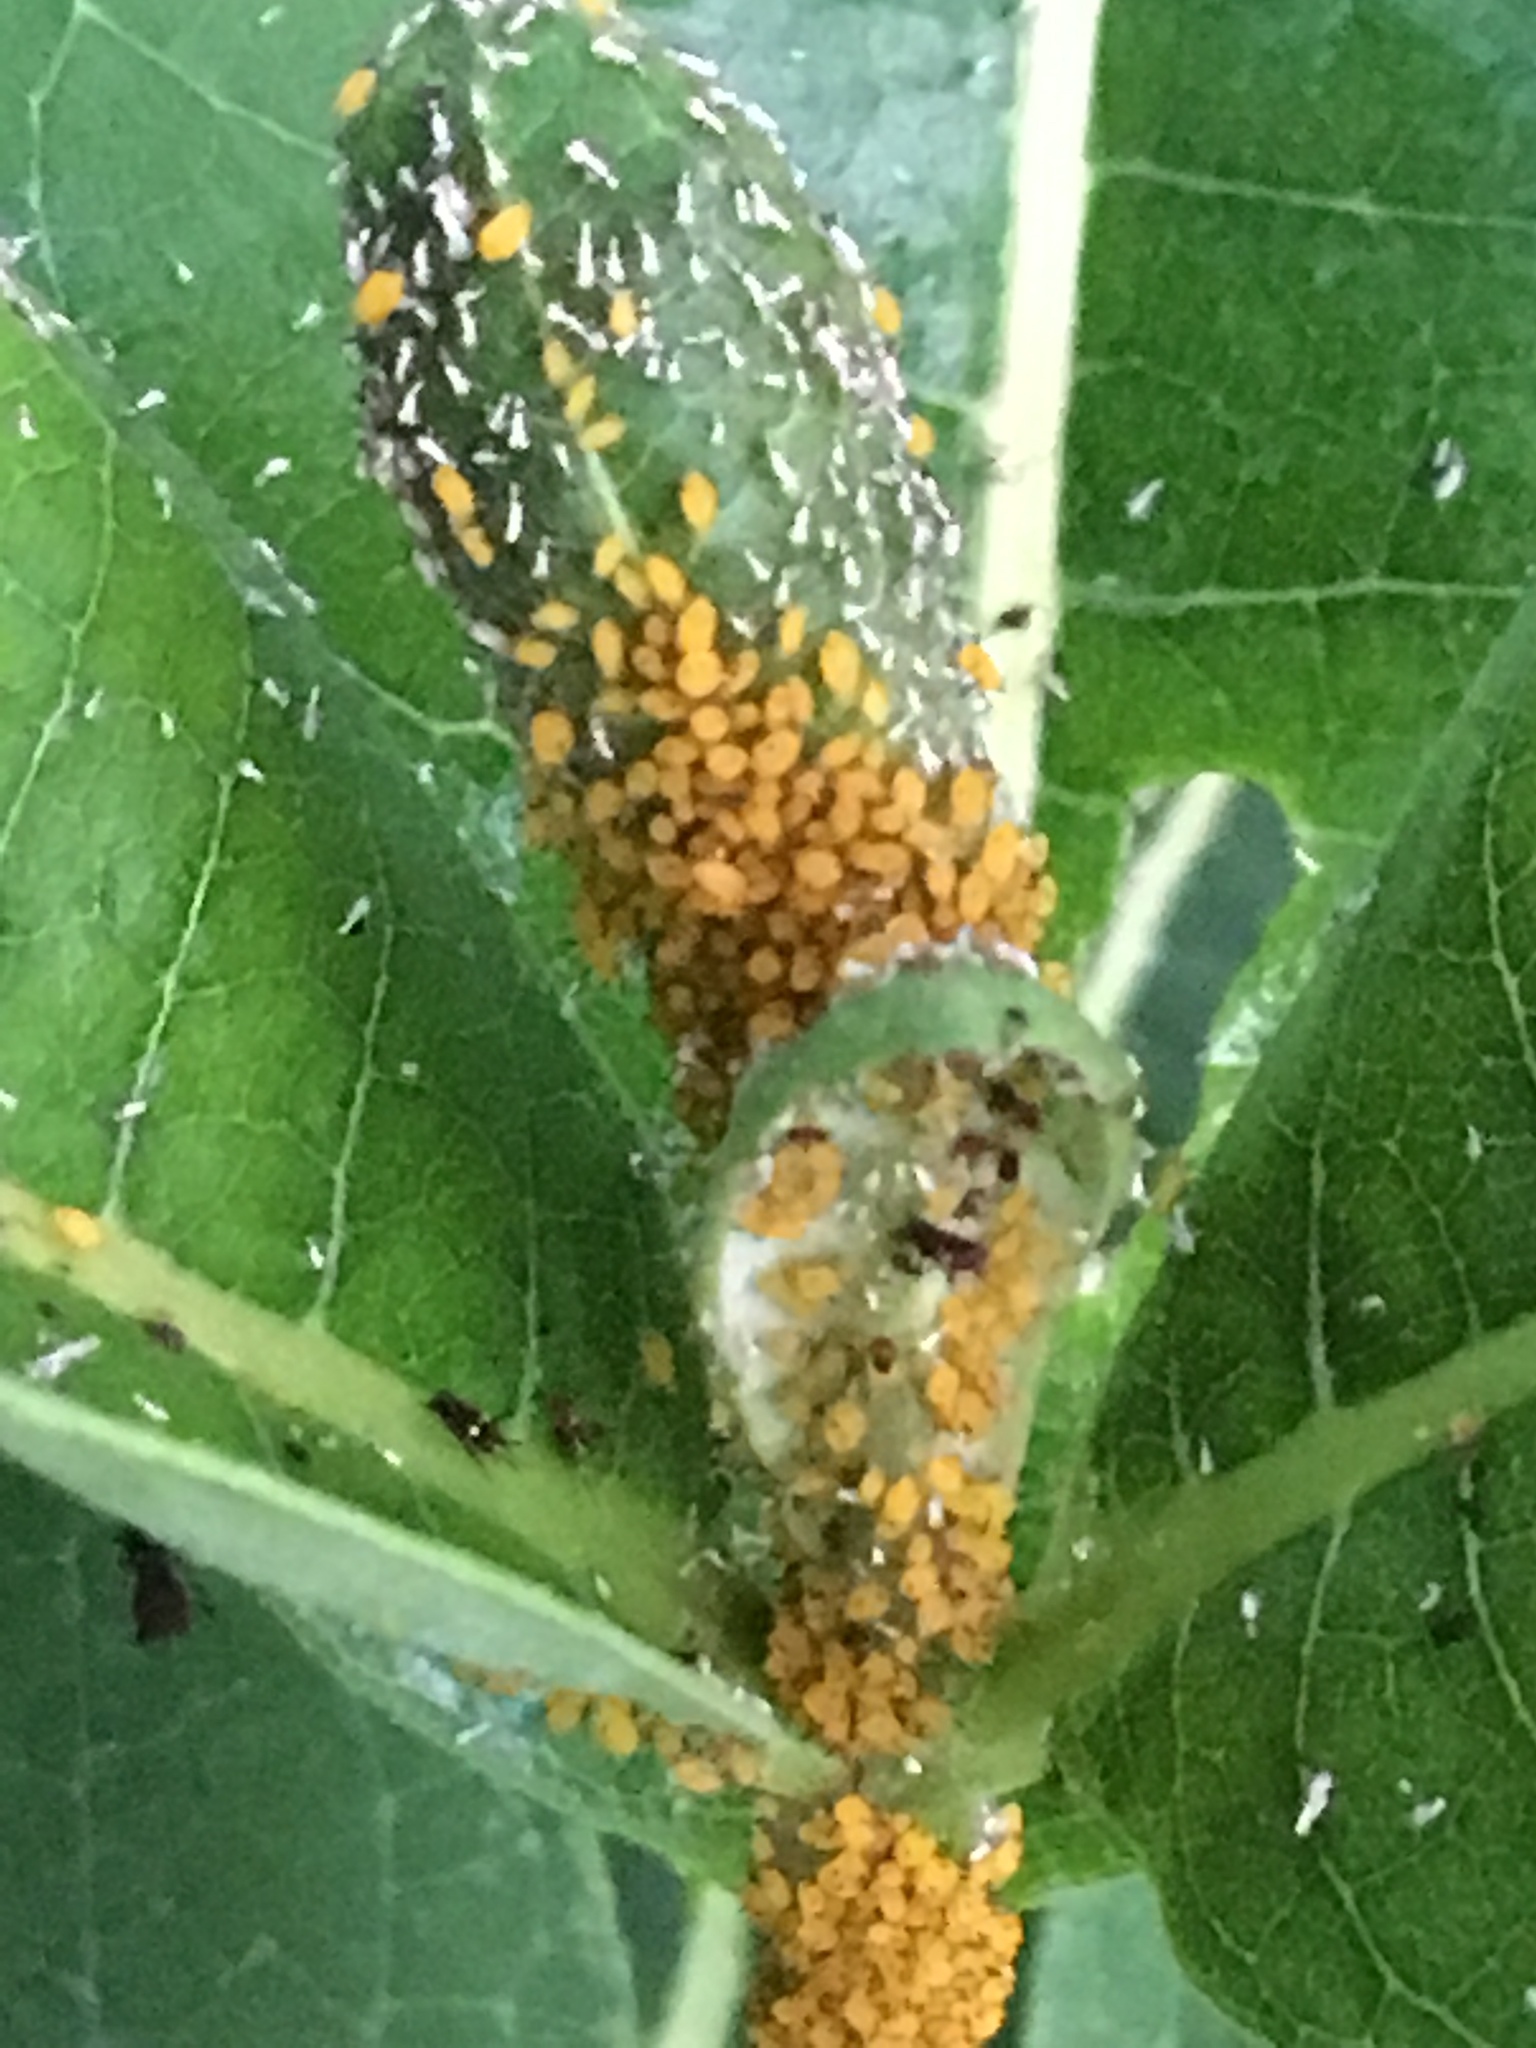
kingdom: Animalia
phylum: Arthropoda
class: Insecta
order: Hemiptera
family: Aphididae
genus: Aphis
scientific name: Aphis nerii
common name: Oleander aphid
